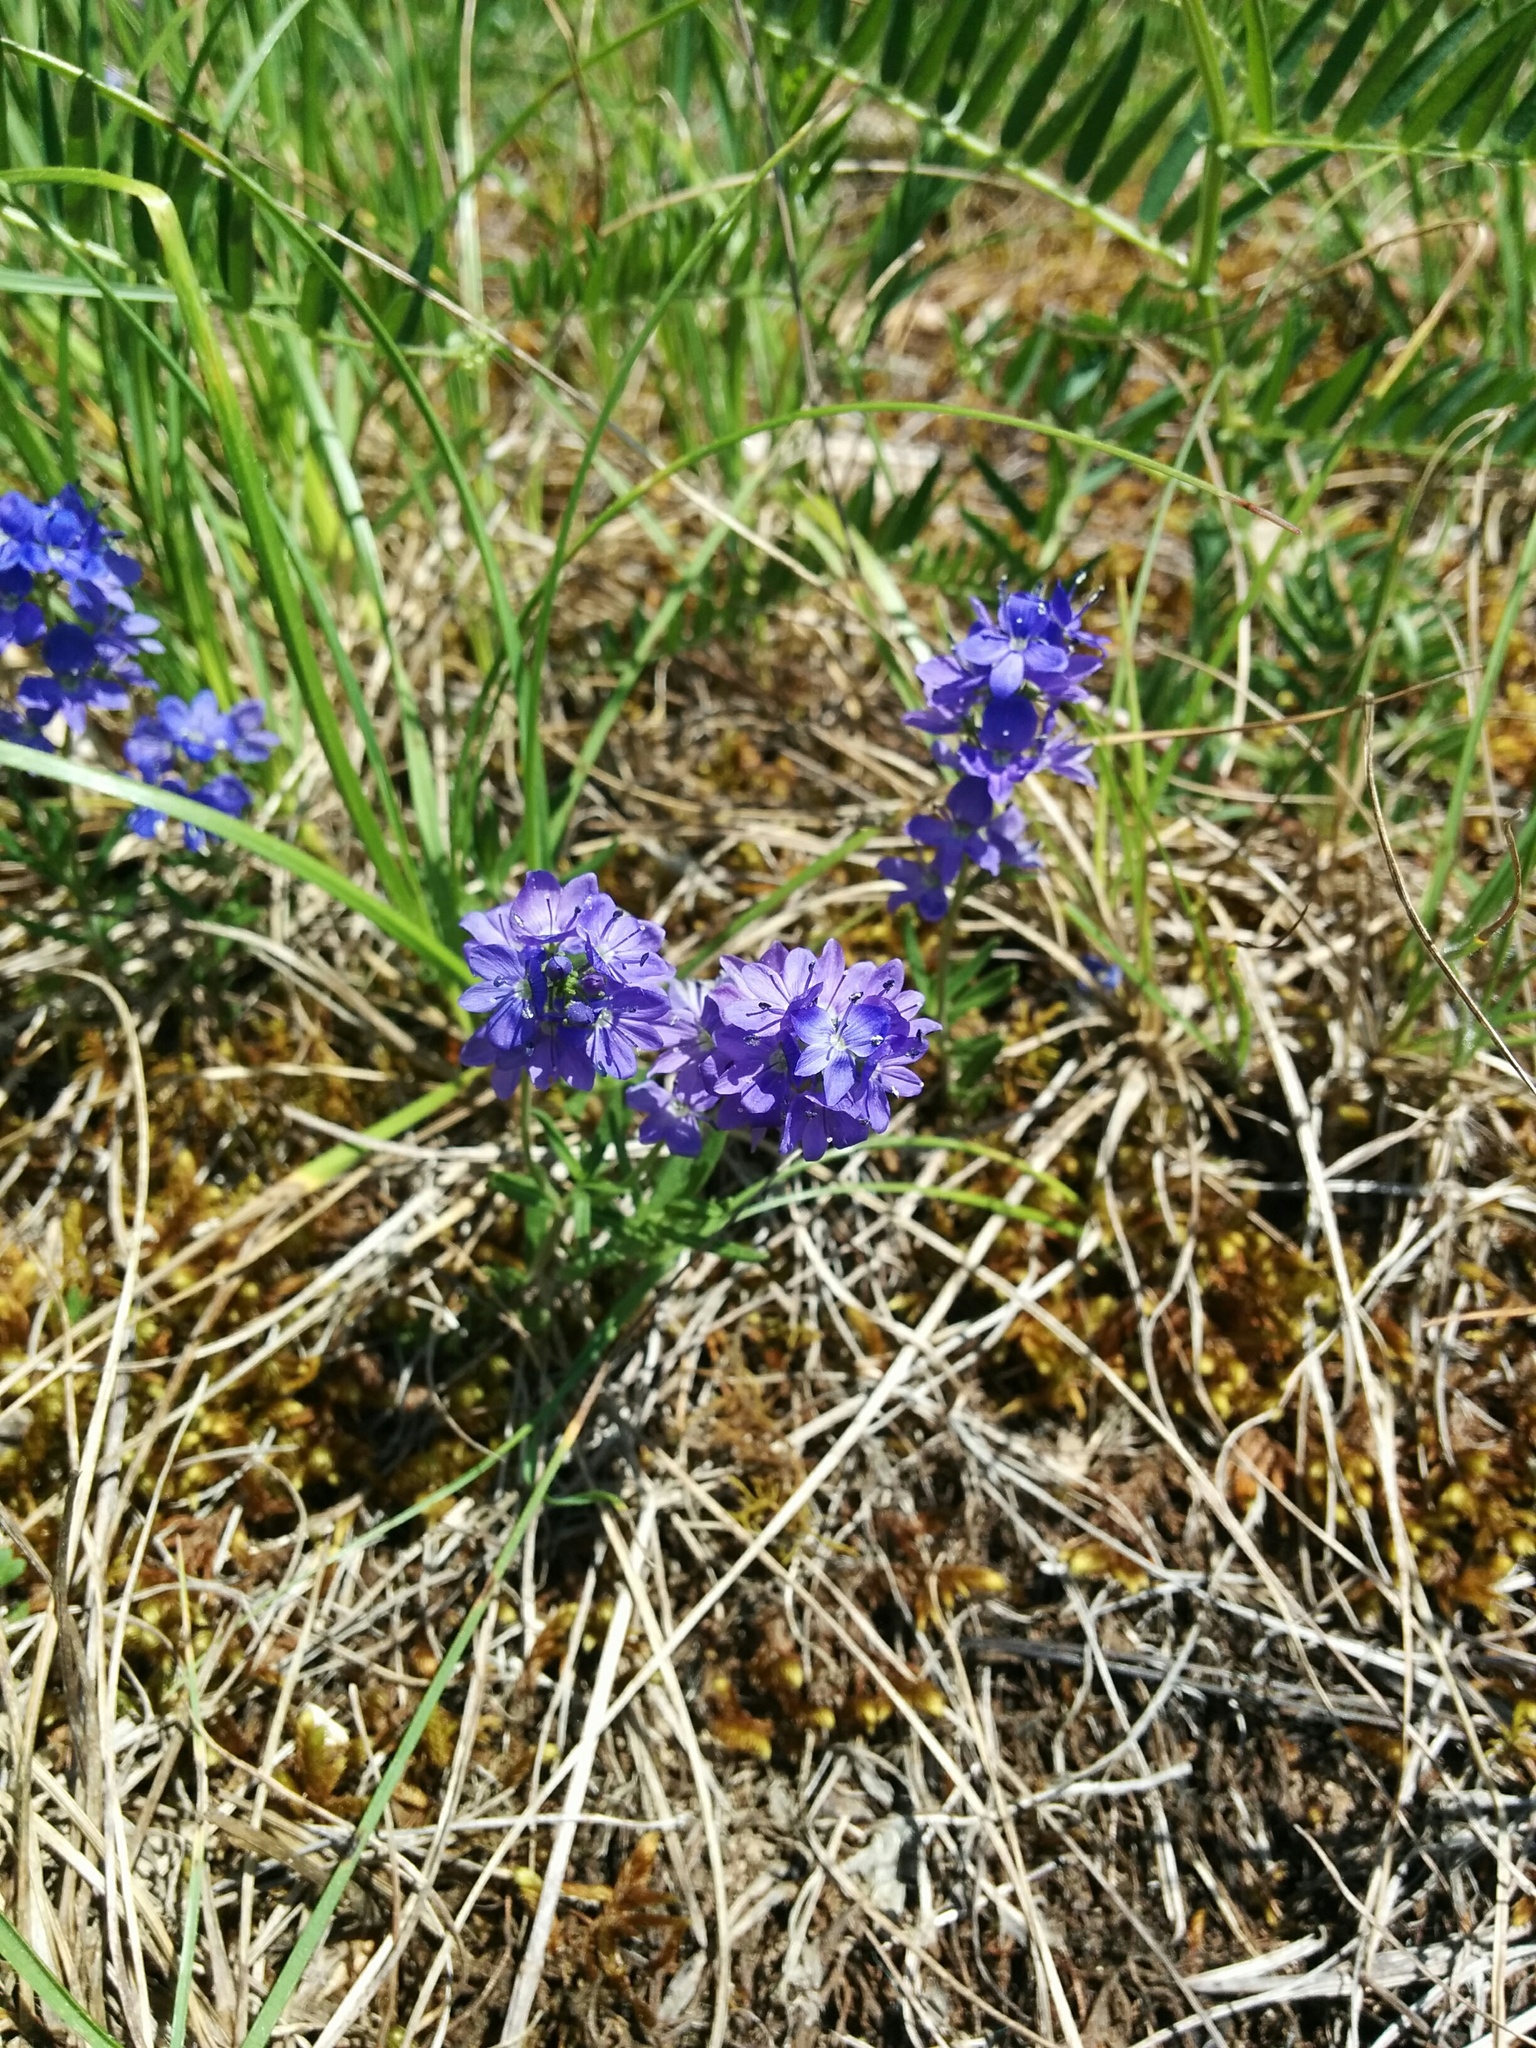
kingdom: Plantae
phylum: Tracheophyta
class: Magnoliopsida
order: Lamiales
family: Plantaginaceae
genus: Veronica
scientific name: Veronica teucrium
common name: Large speedwell
